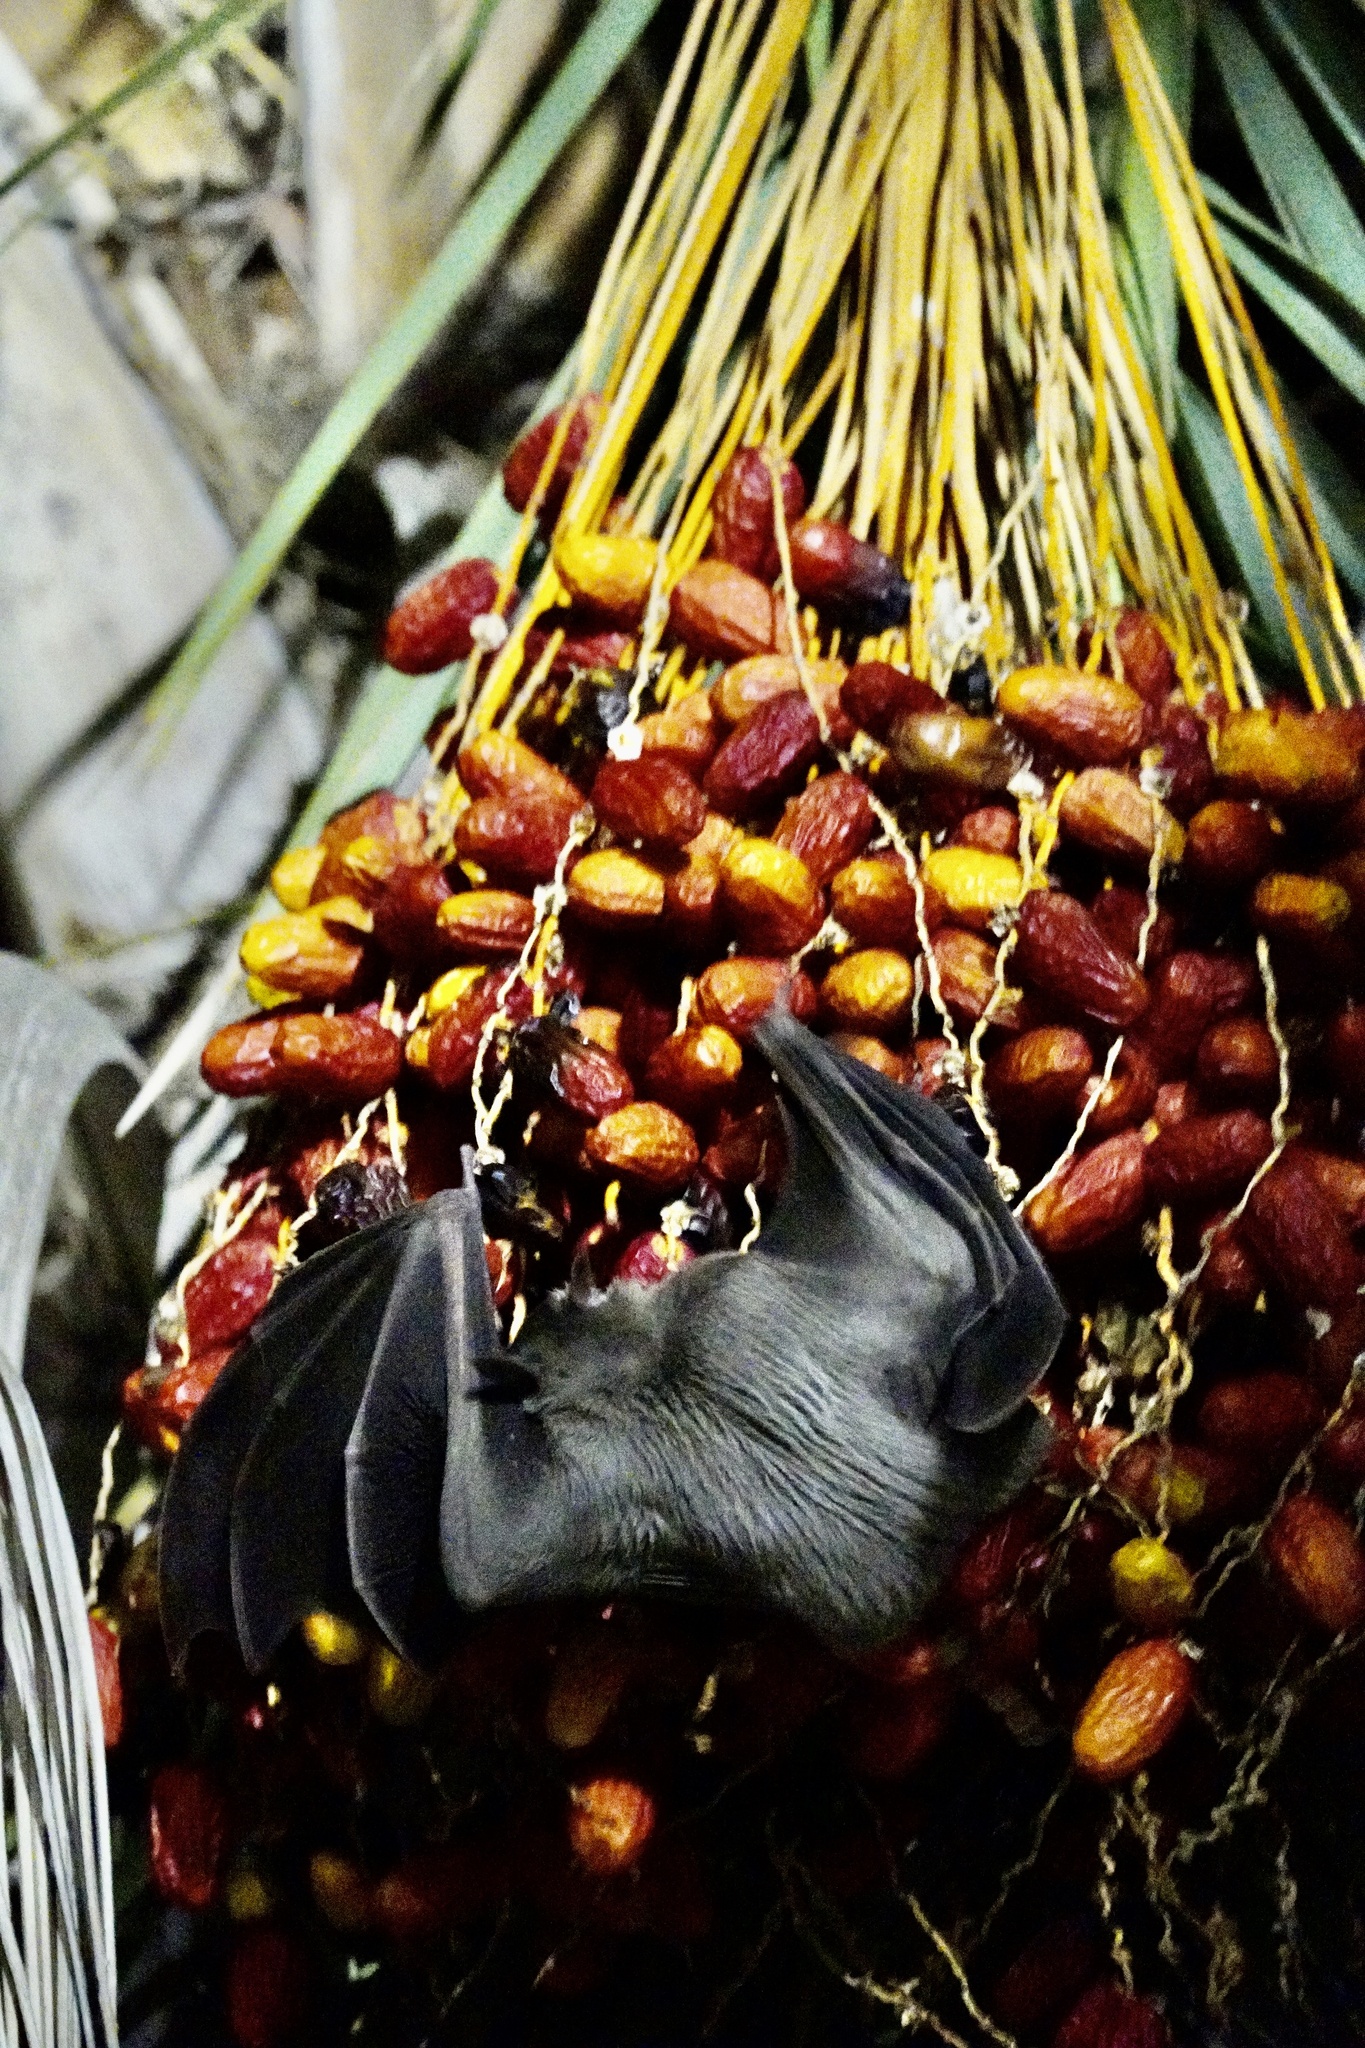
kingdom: Animalia
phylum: Chordata
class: Mammalia
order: Chiroptera
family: Pteropodidae
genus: Rousettus
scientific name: Rousettus aegyptiacus
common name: Egyptian rousette
